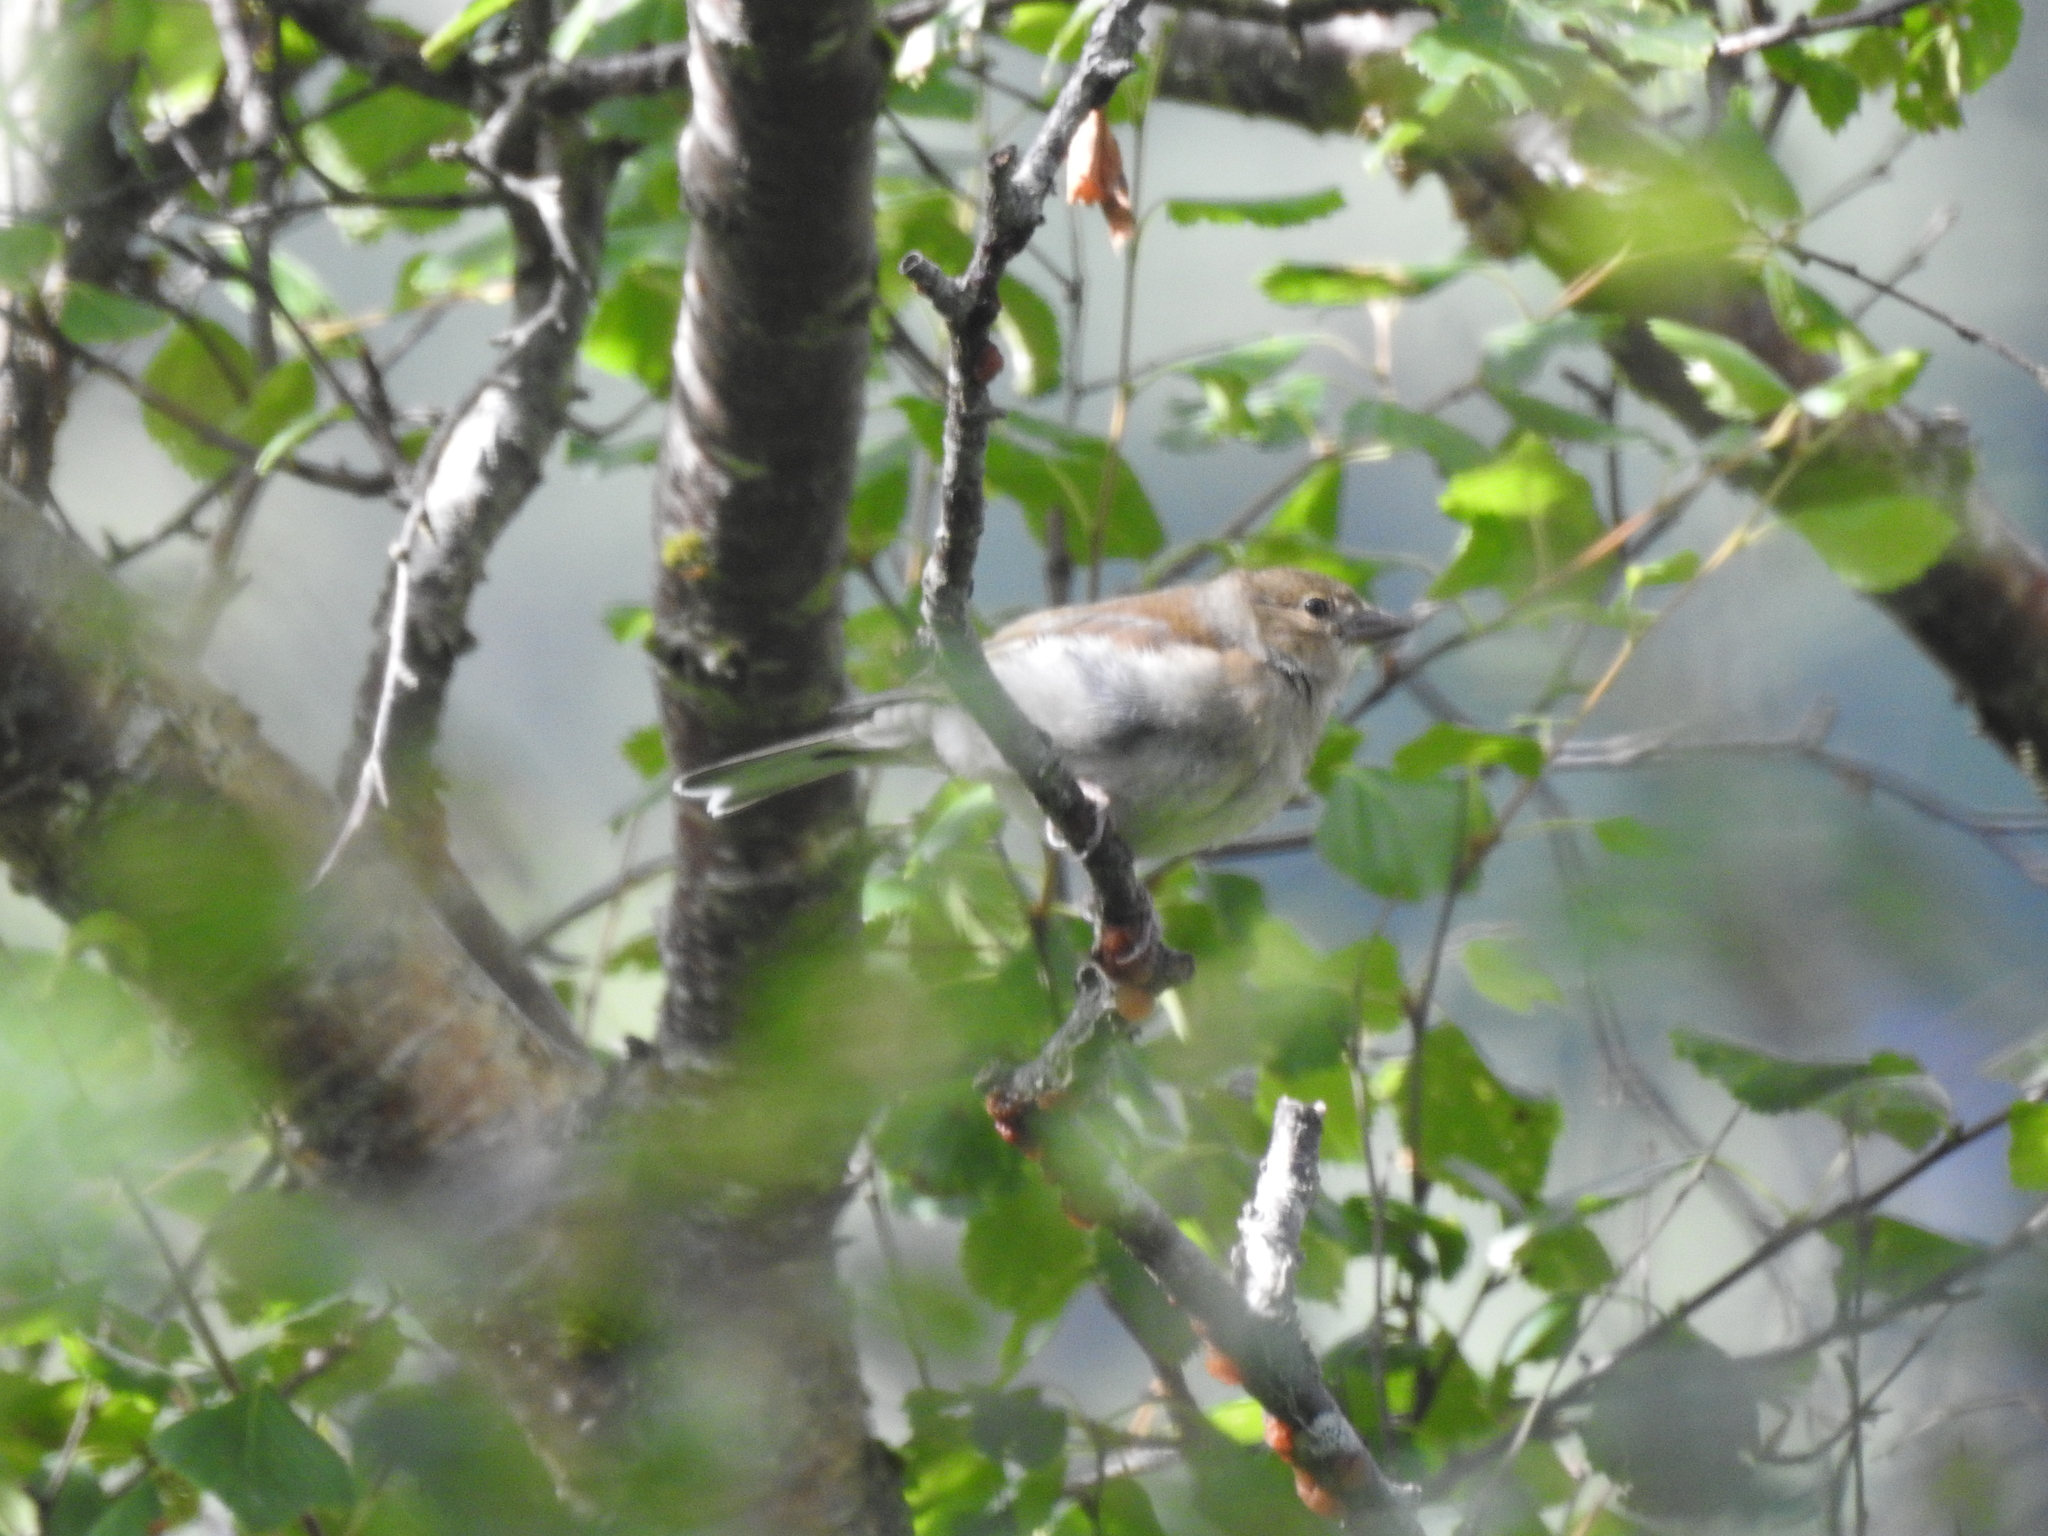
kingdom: Animalia
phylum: Chordata
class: Aves
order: Passeriformes
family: Fringillidae
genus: Fringilla
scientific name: Fringilla coelebs
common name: Common chaffinch
